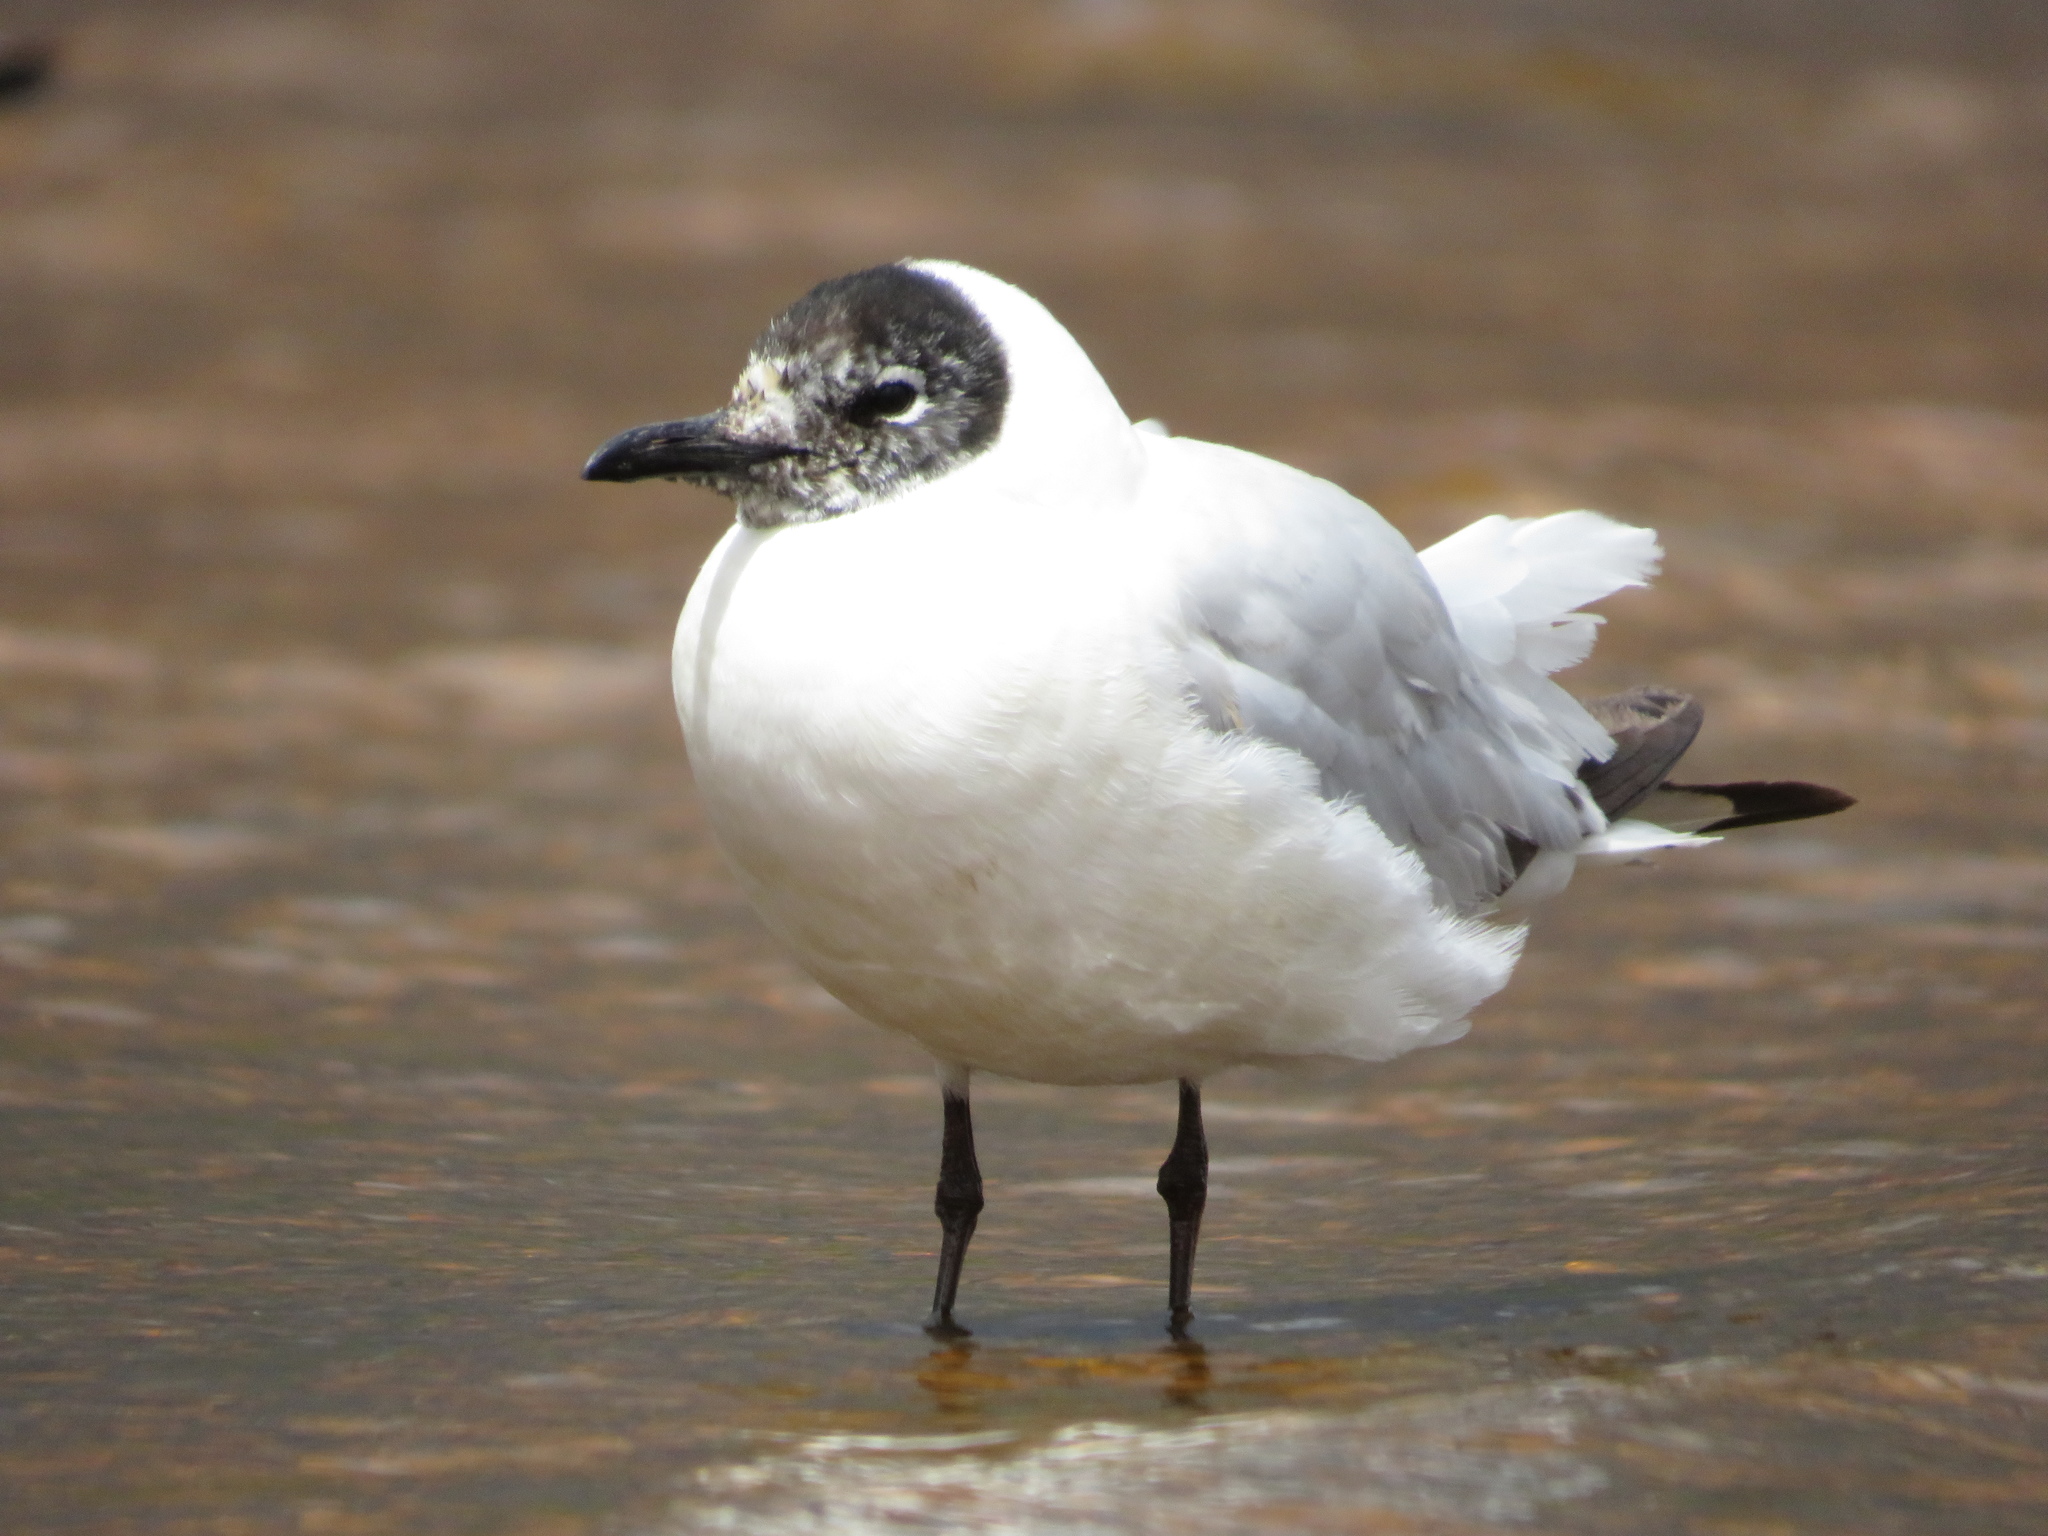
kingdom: Animalia
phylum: Chordata
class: Aves
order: Charadriiformes
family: Laridae
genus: Chroicocephalus
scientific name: Chroicocephalus serranus
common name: Andean gull
